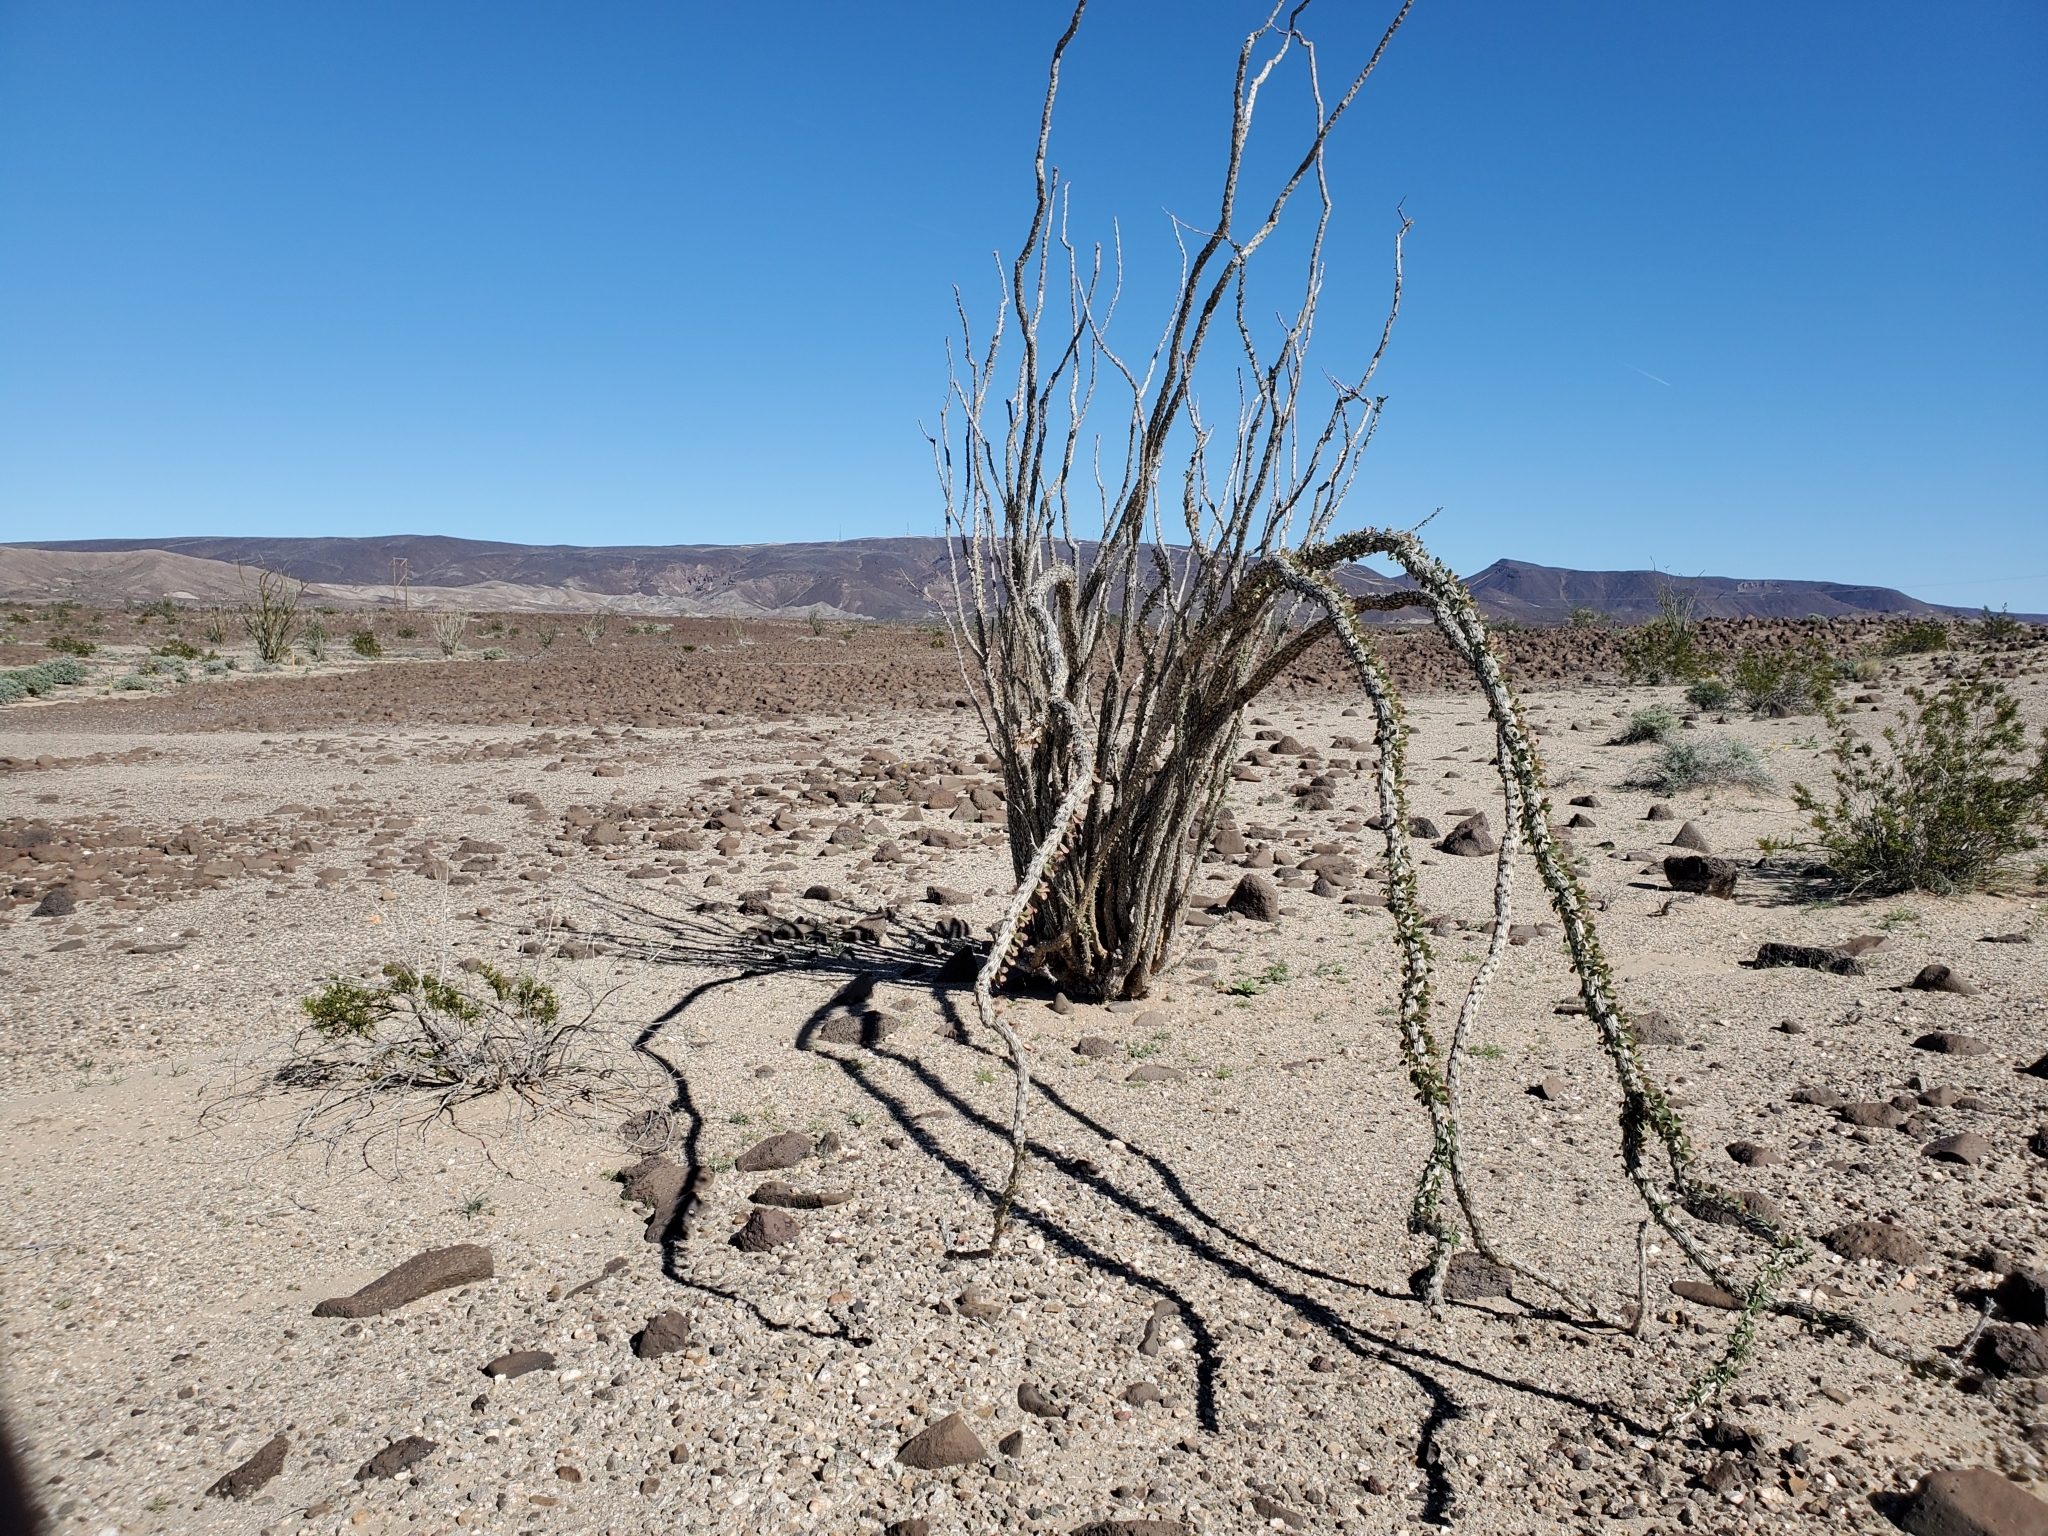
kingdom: Plantae
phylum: Tracheophyta
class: Magnoliopsida
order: Ericales
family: Fouquieriaceae
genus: Fouquieria
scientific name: Fouquieria splendens
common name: Vine-cactus
